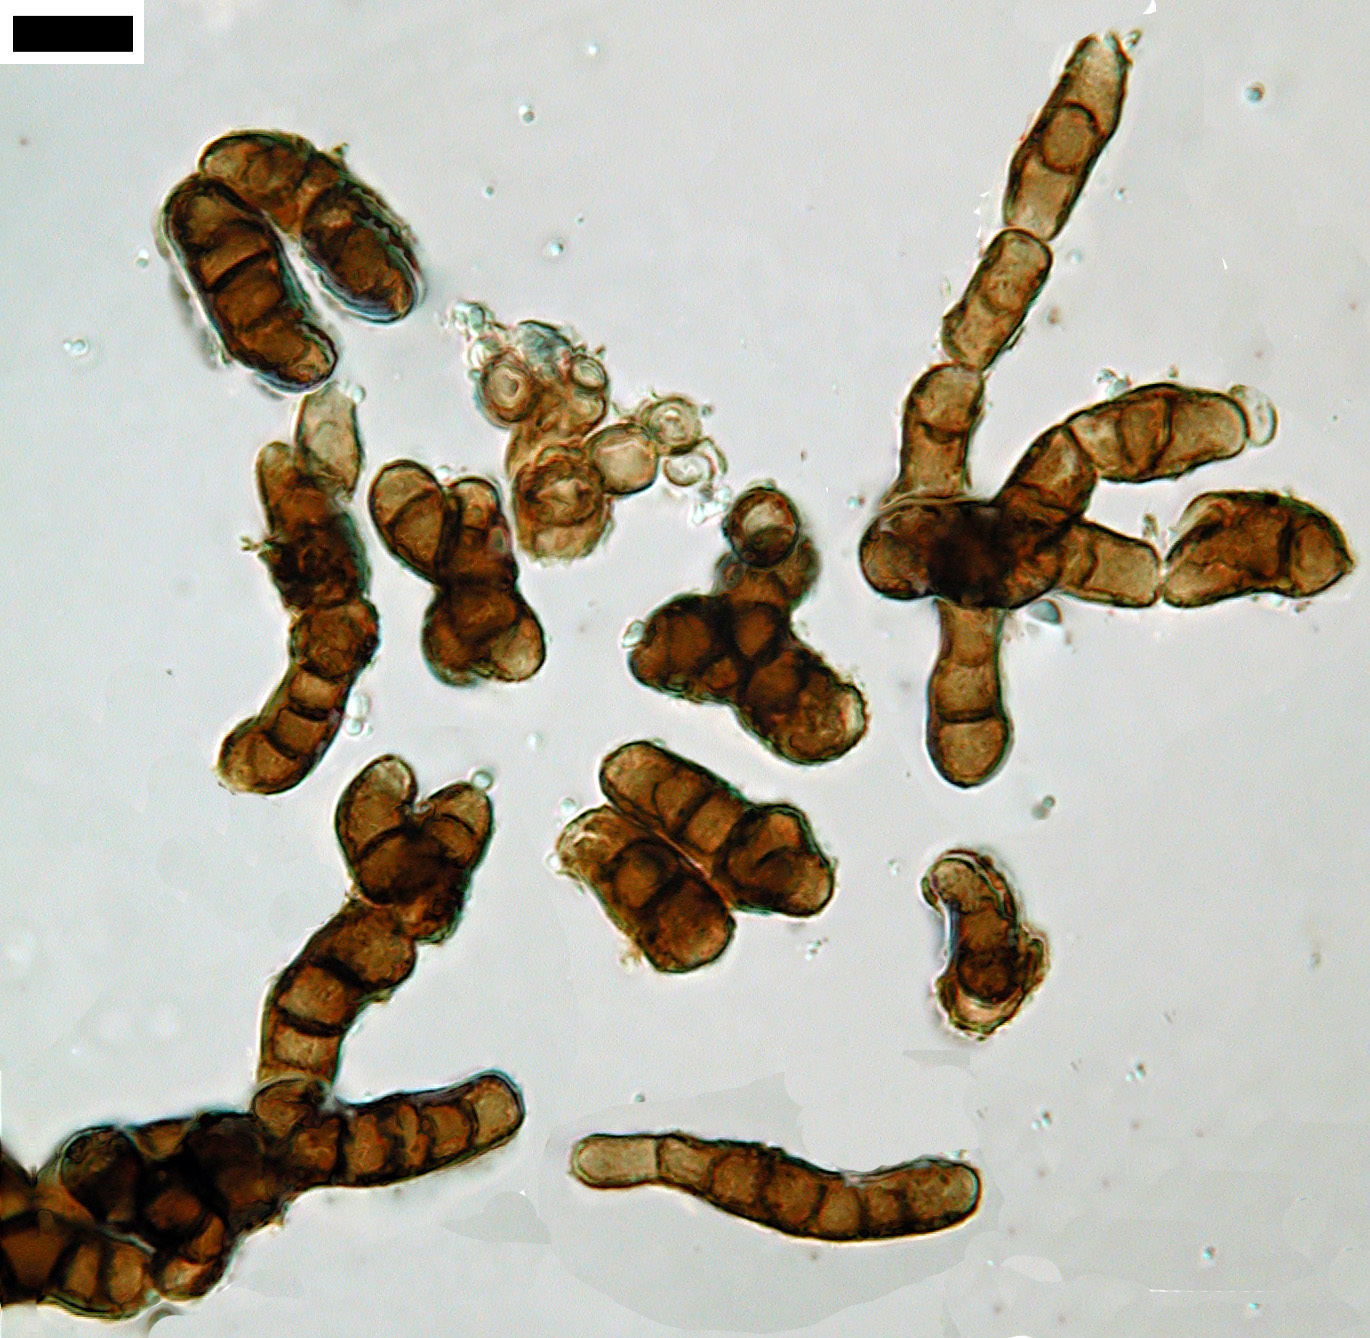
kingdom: Fungi
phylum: Ascomycota
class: Leotiomycetes
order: Helotiales
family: Mollisiaceae
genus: Trimmatostroma
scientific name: Trimmatostroma salicis
